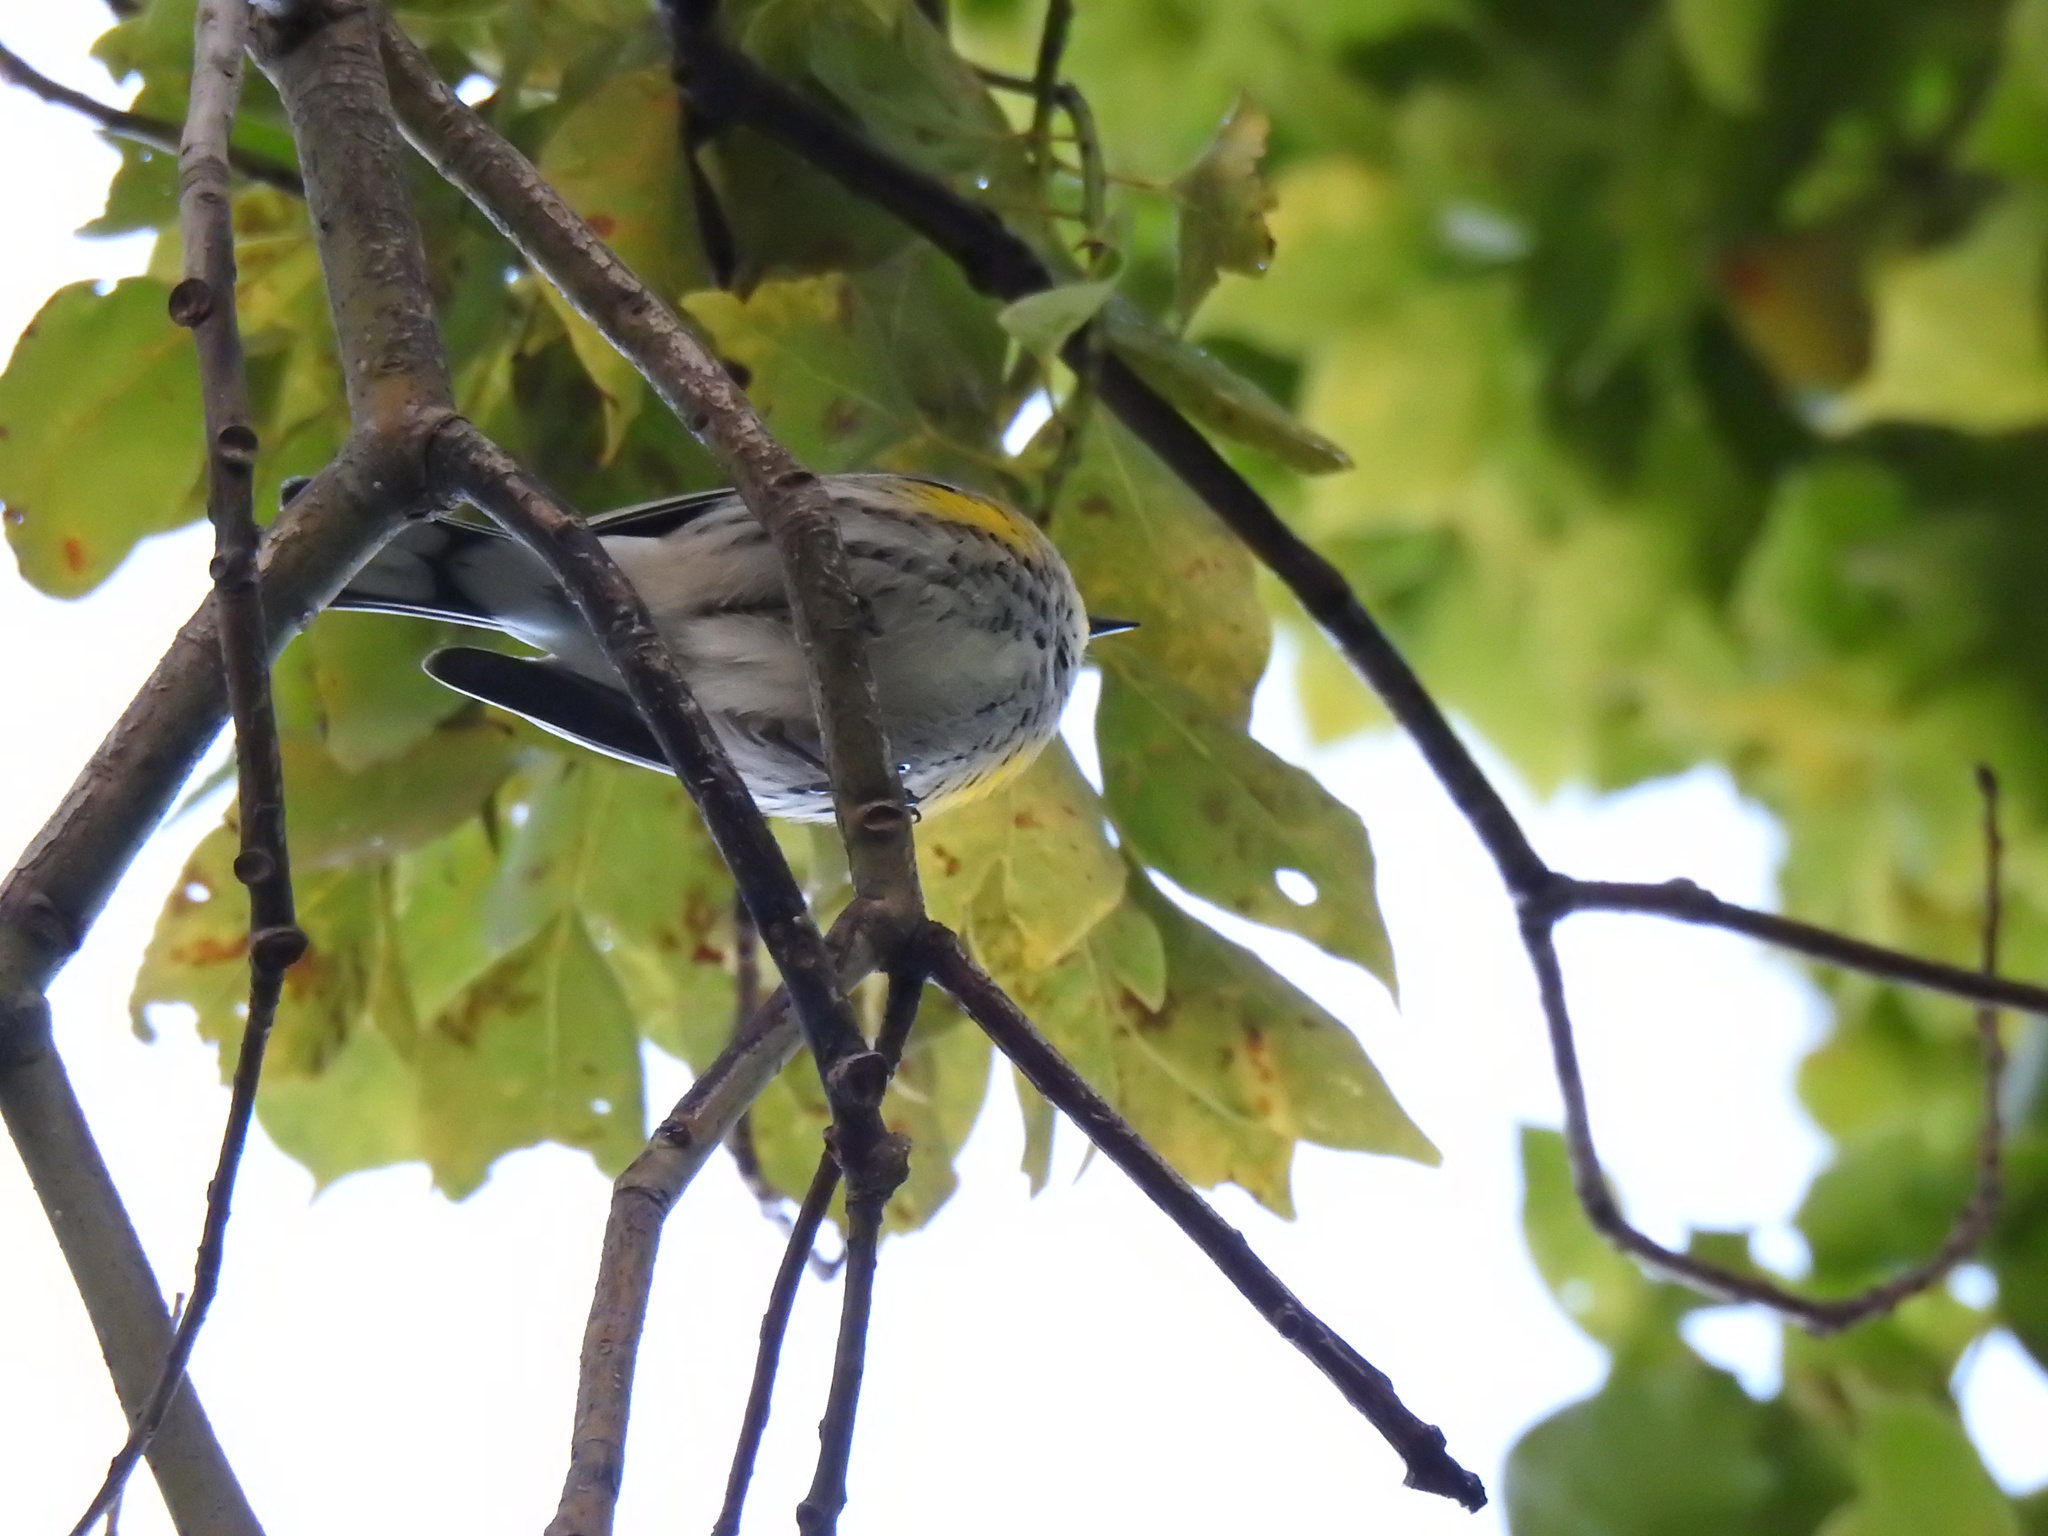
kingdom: Animalia
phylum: Chordata
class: Aves
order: Passeriformes
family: Parulidae
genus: Setophaga
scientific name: Setophaga coronata
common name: Myrtle warbler
